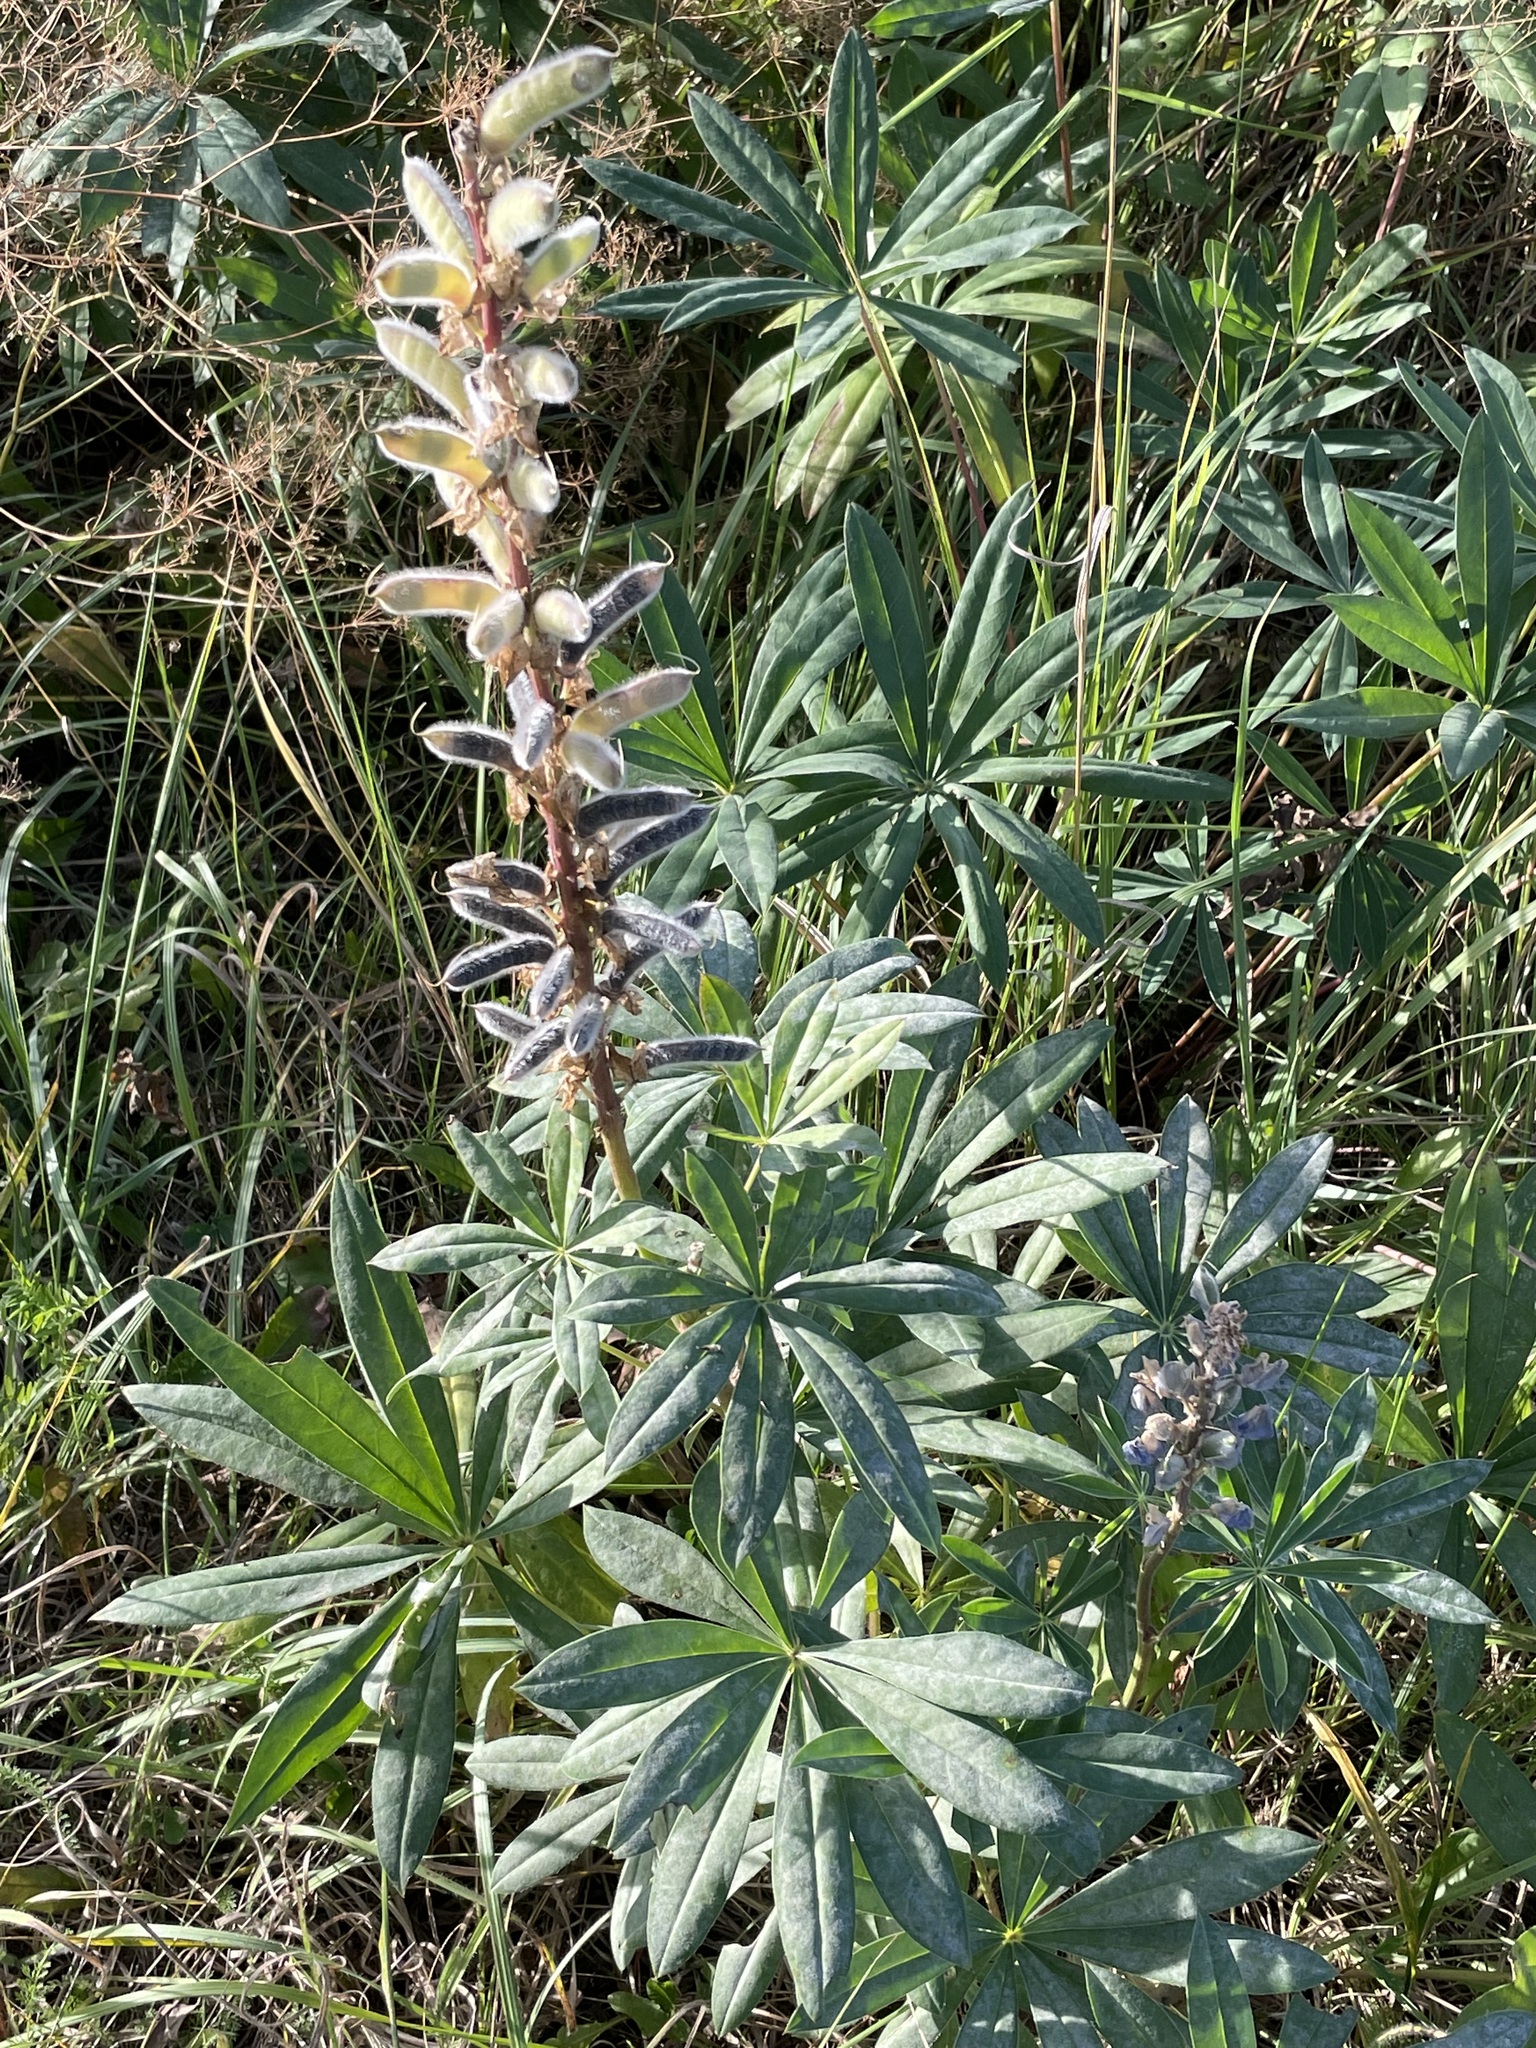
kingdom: Plantae
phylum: Tracheophyta
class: Magnoliopsida
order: Fabales
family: Fabaceae
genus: Lupinus
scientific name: Lupinus polyphyllus
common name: Garden lupin
